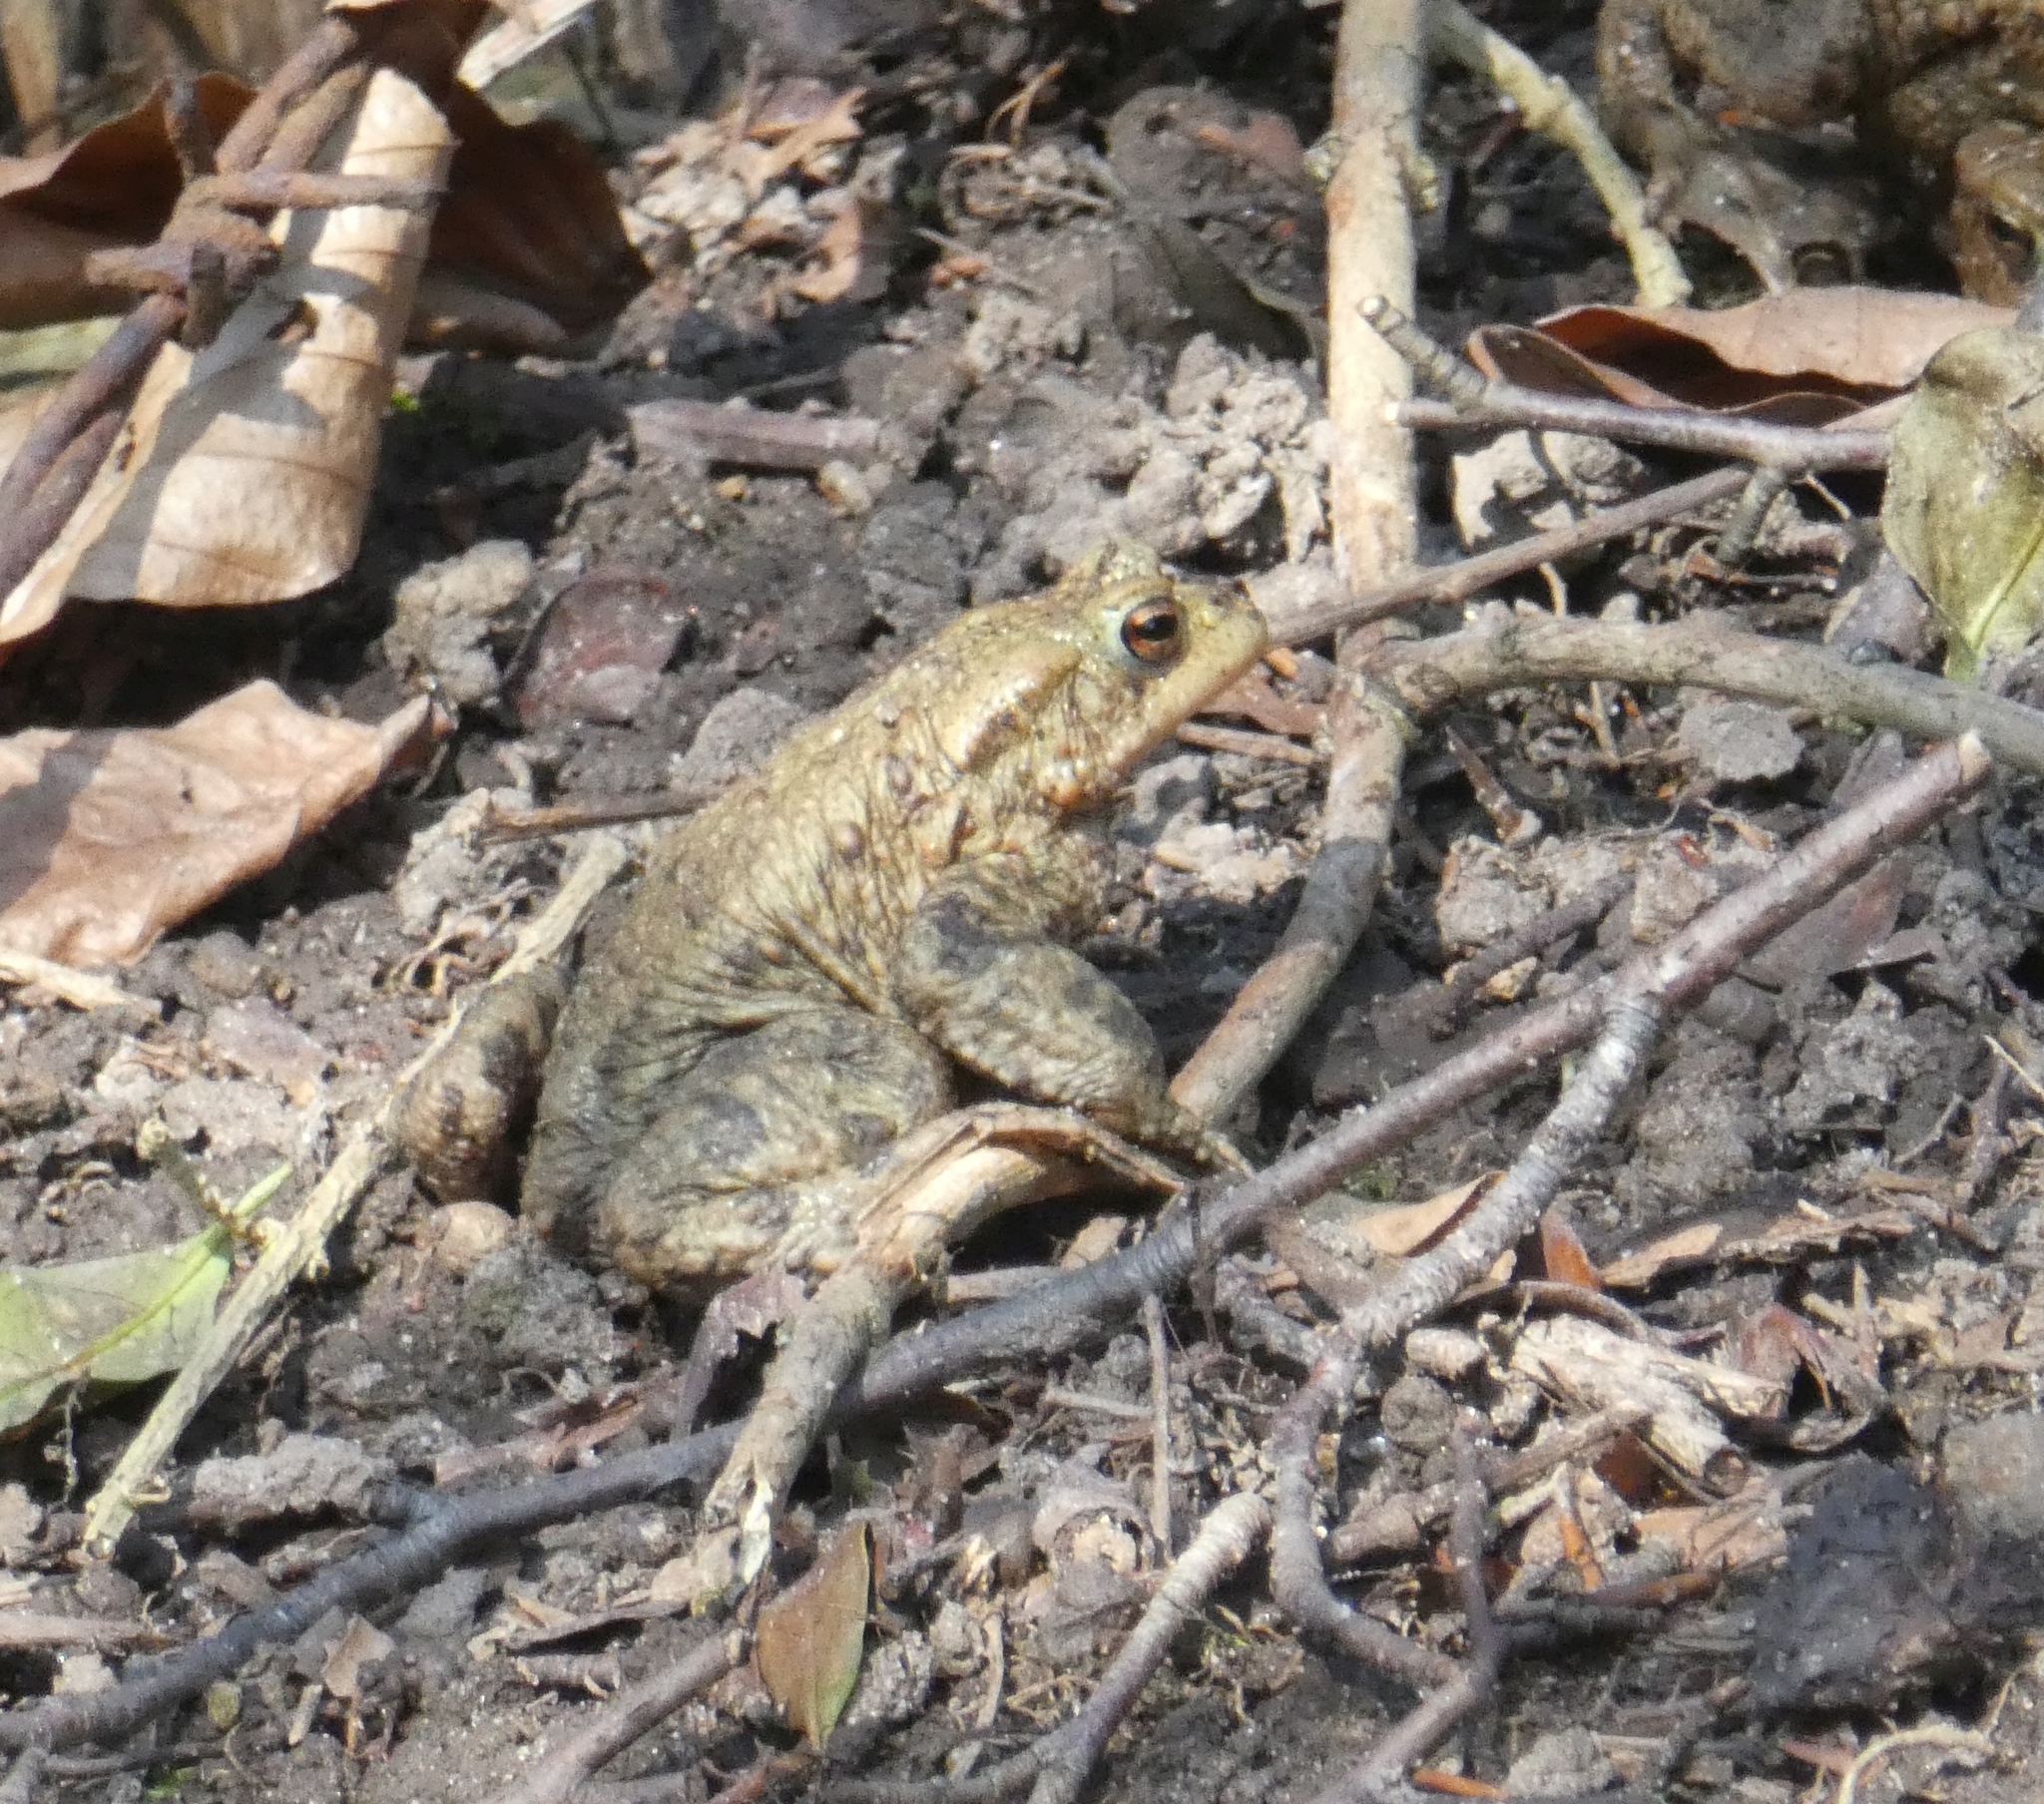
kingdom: Animalia
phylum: Chordata
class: Amphibia
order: Anura
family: Bufonidae
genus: Bufo
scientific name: Bufo bufo
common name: Common toad
